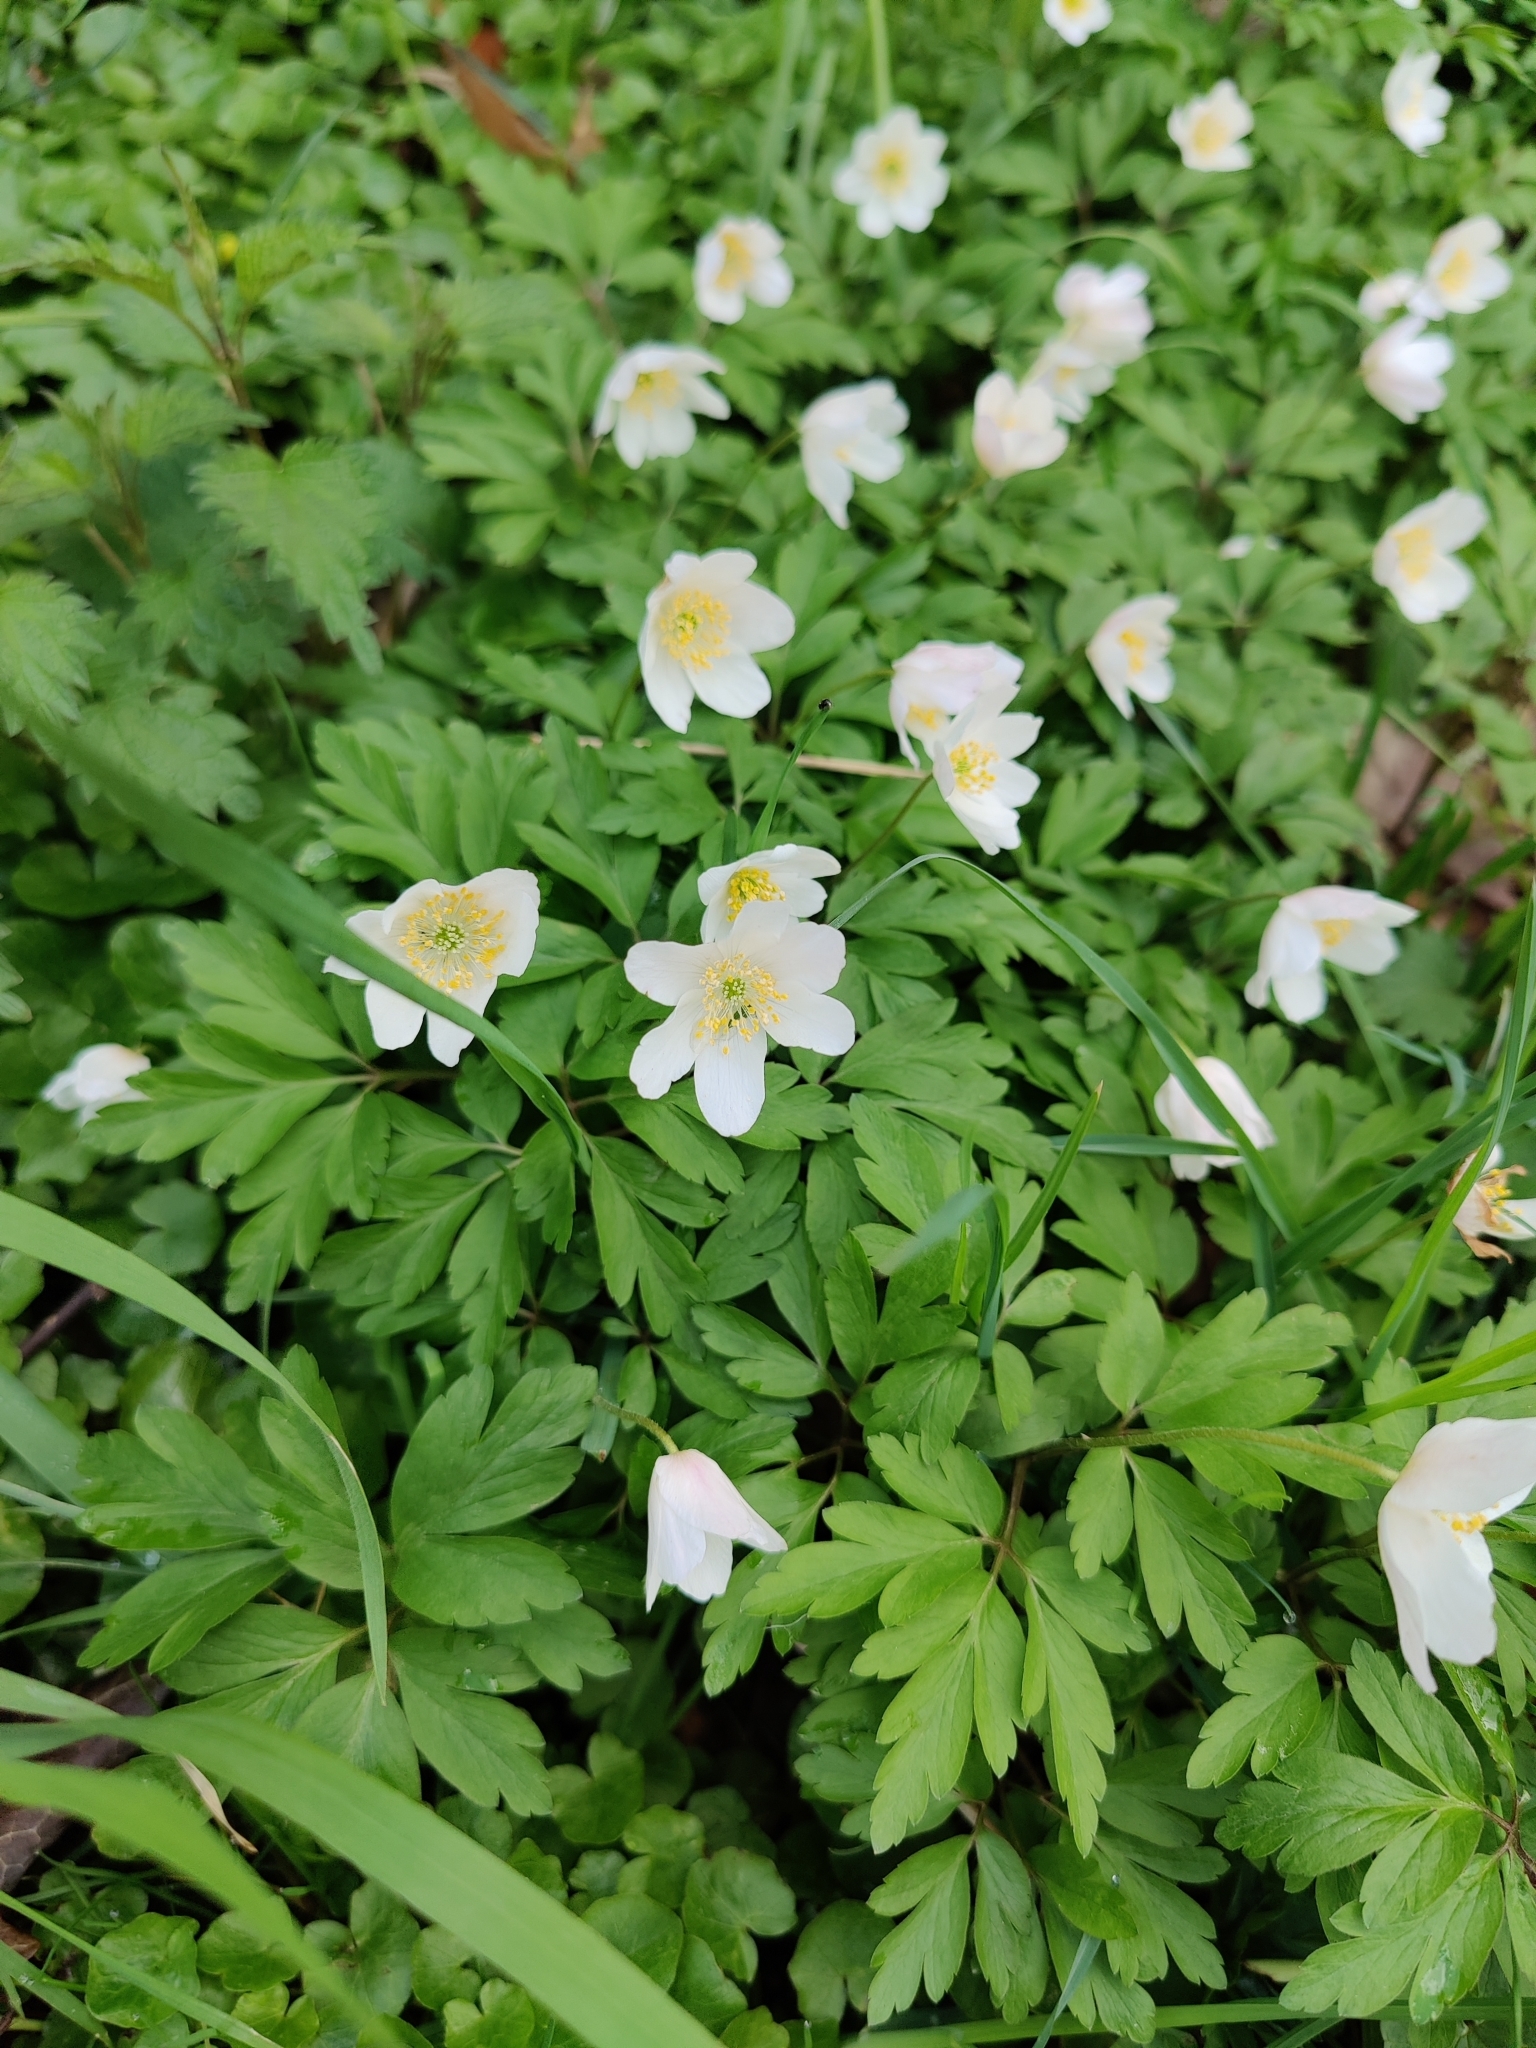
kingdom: Plantae
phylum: Tracheophyta
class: Magnoliopsida
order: Ranunculales
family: Ranunculaceae
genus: Anemone
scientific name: Anemone nemorosa
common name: Wood anemone
